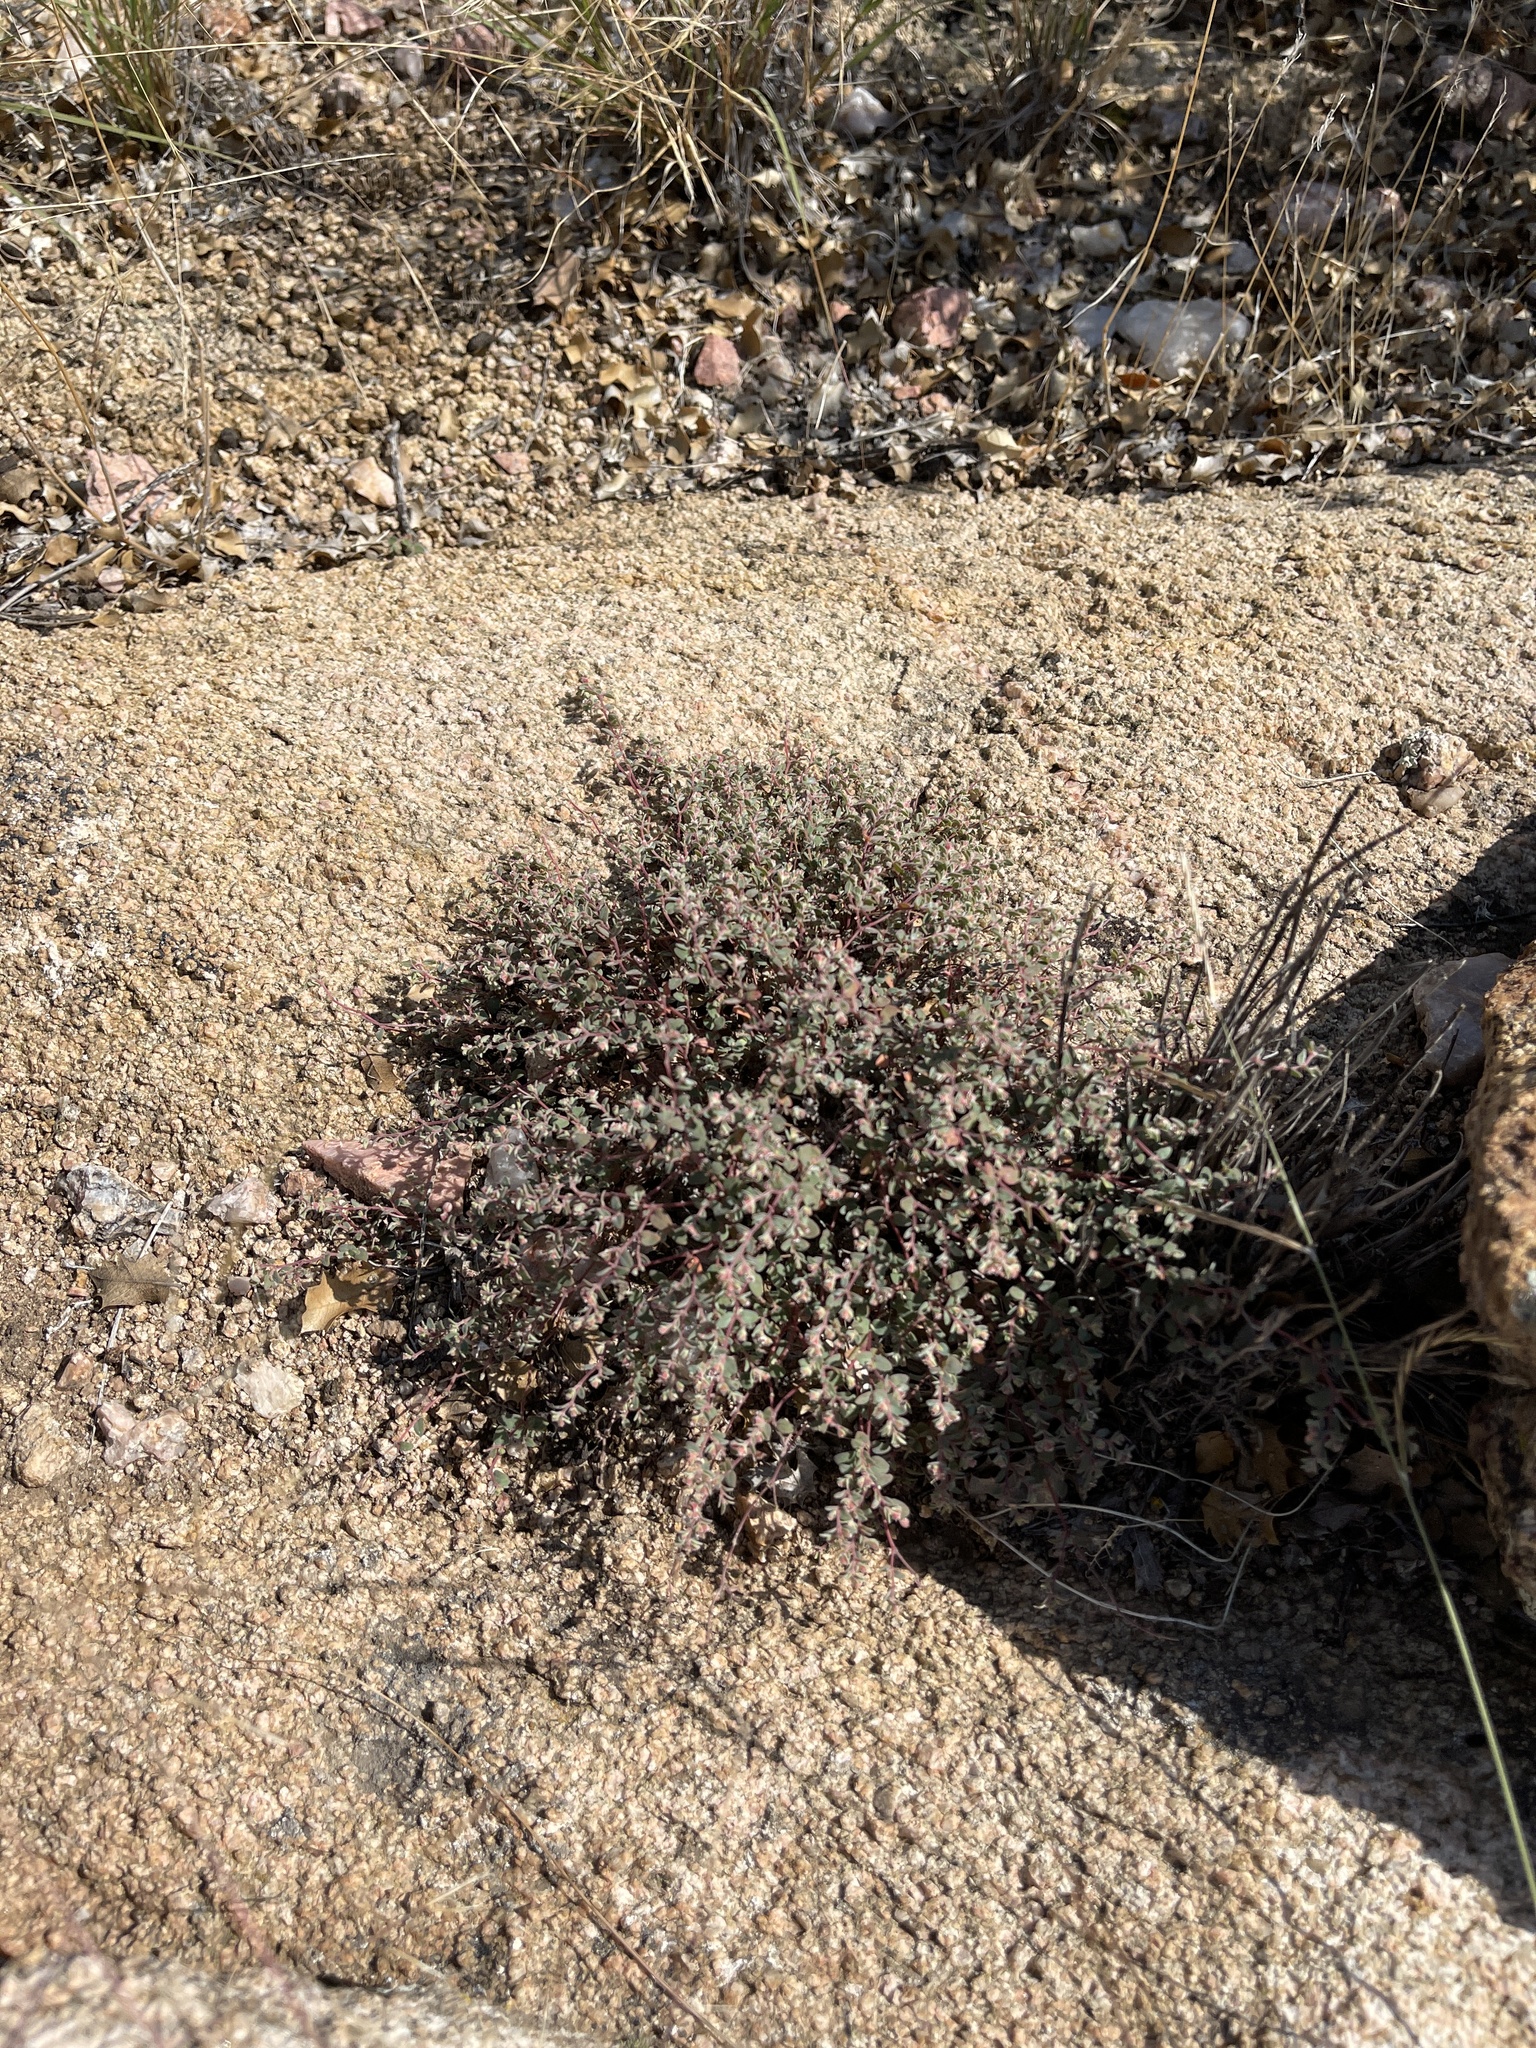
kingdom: Plantae
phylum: Tracheophyta
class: Magnoliopsida
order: Malpighiales
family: Euphorbiaceae
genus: Euphorbia
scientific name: Euphorbia melanadenia
